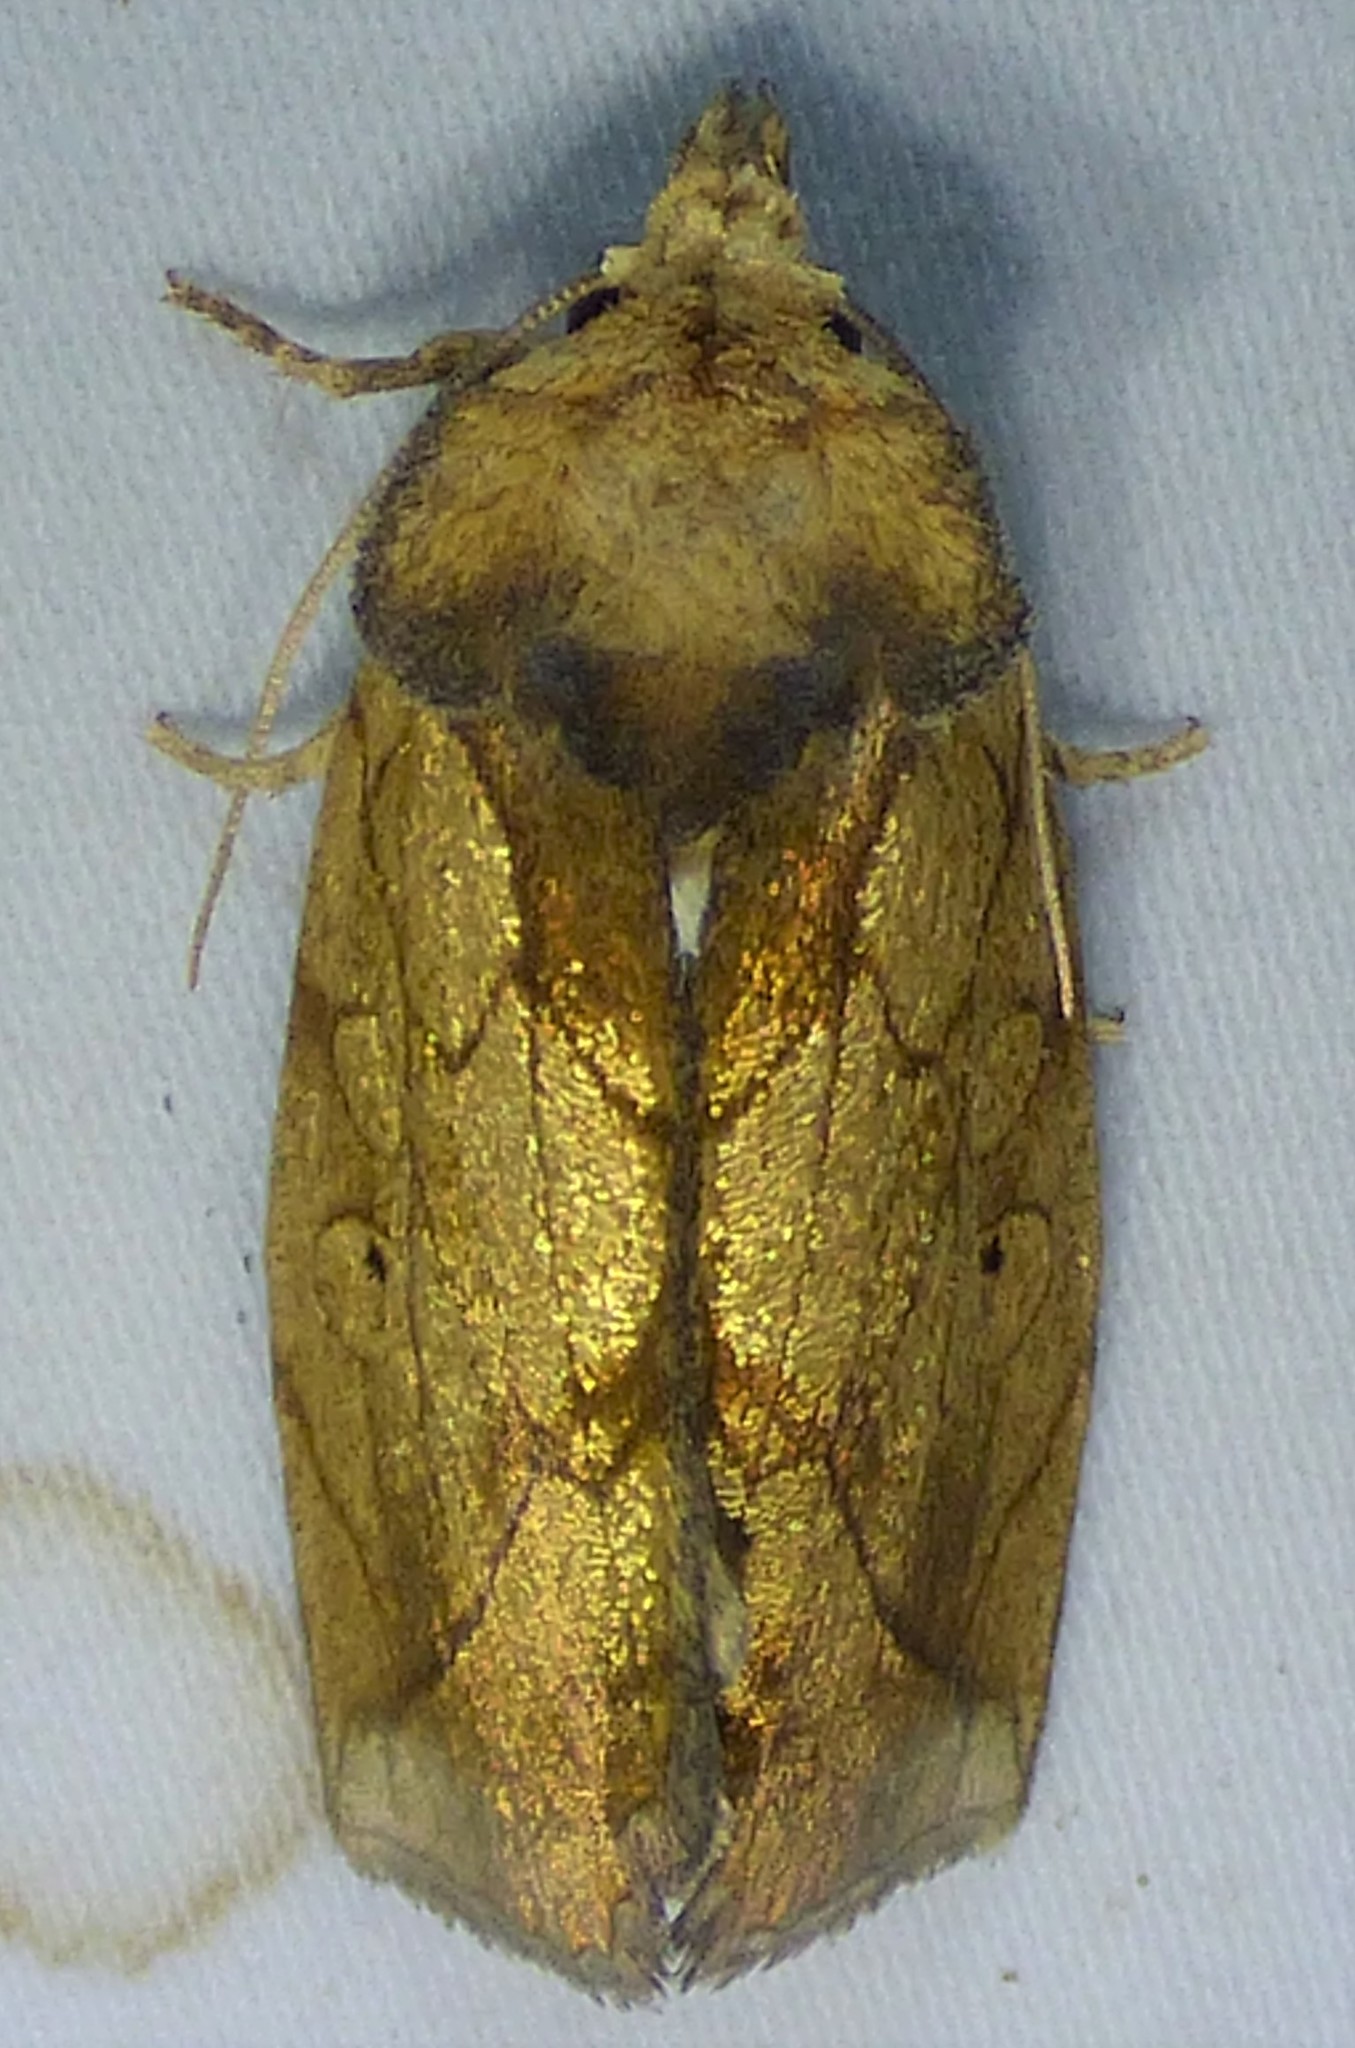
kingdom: Animalia
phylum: Arthropoda
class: Insecta
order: Lepidoptera
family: Noctuidae
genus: Basilodes
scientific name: Basilodes pepita
